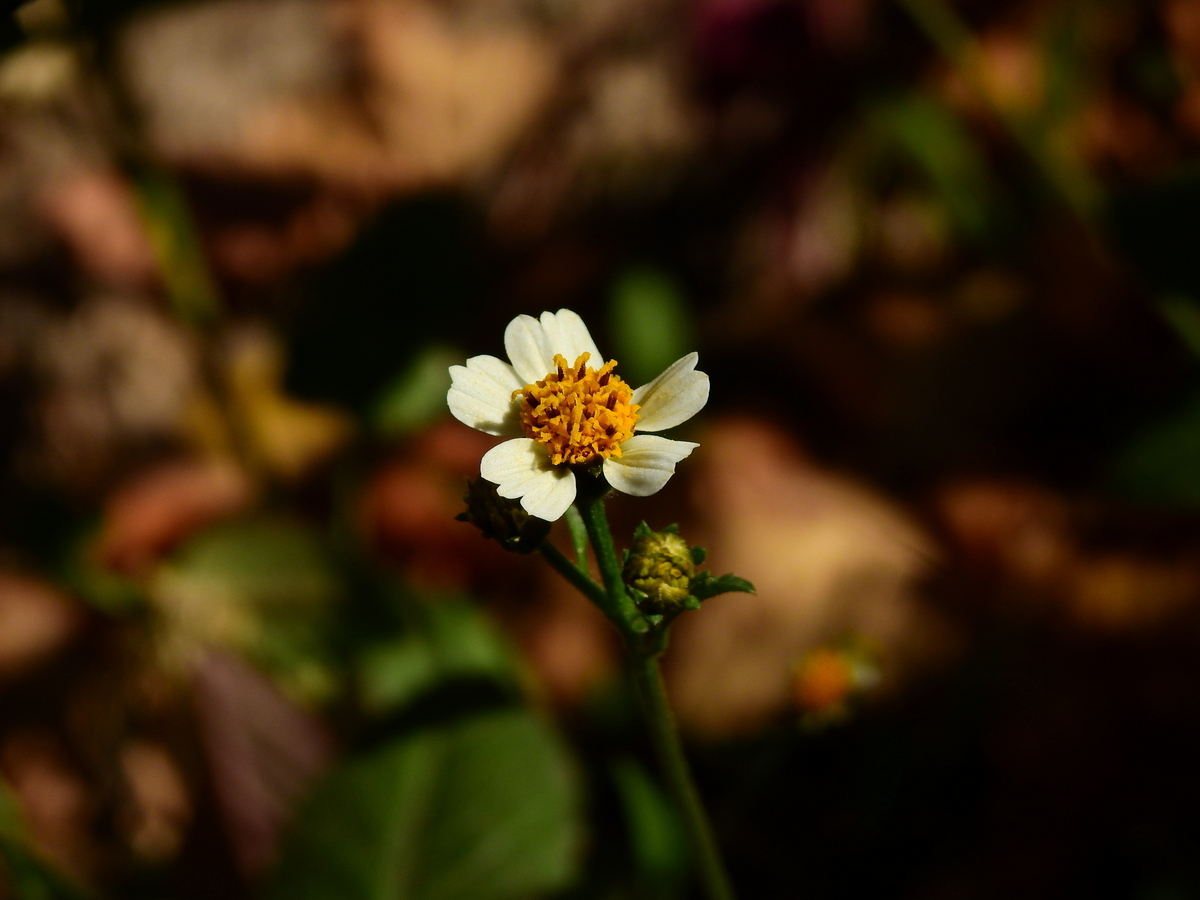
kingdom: Plantae
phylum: Tracheophyta
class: Magnoliopsida
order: Asterales
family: Asteraceae
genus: Bidens
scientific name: Bidens pilosa
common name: Black-jack
